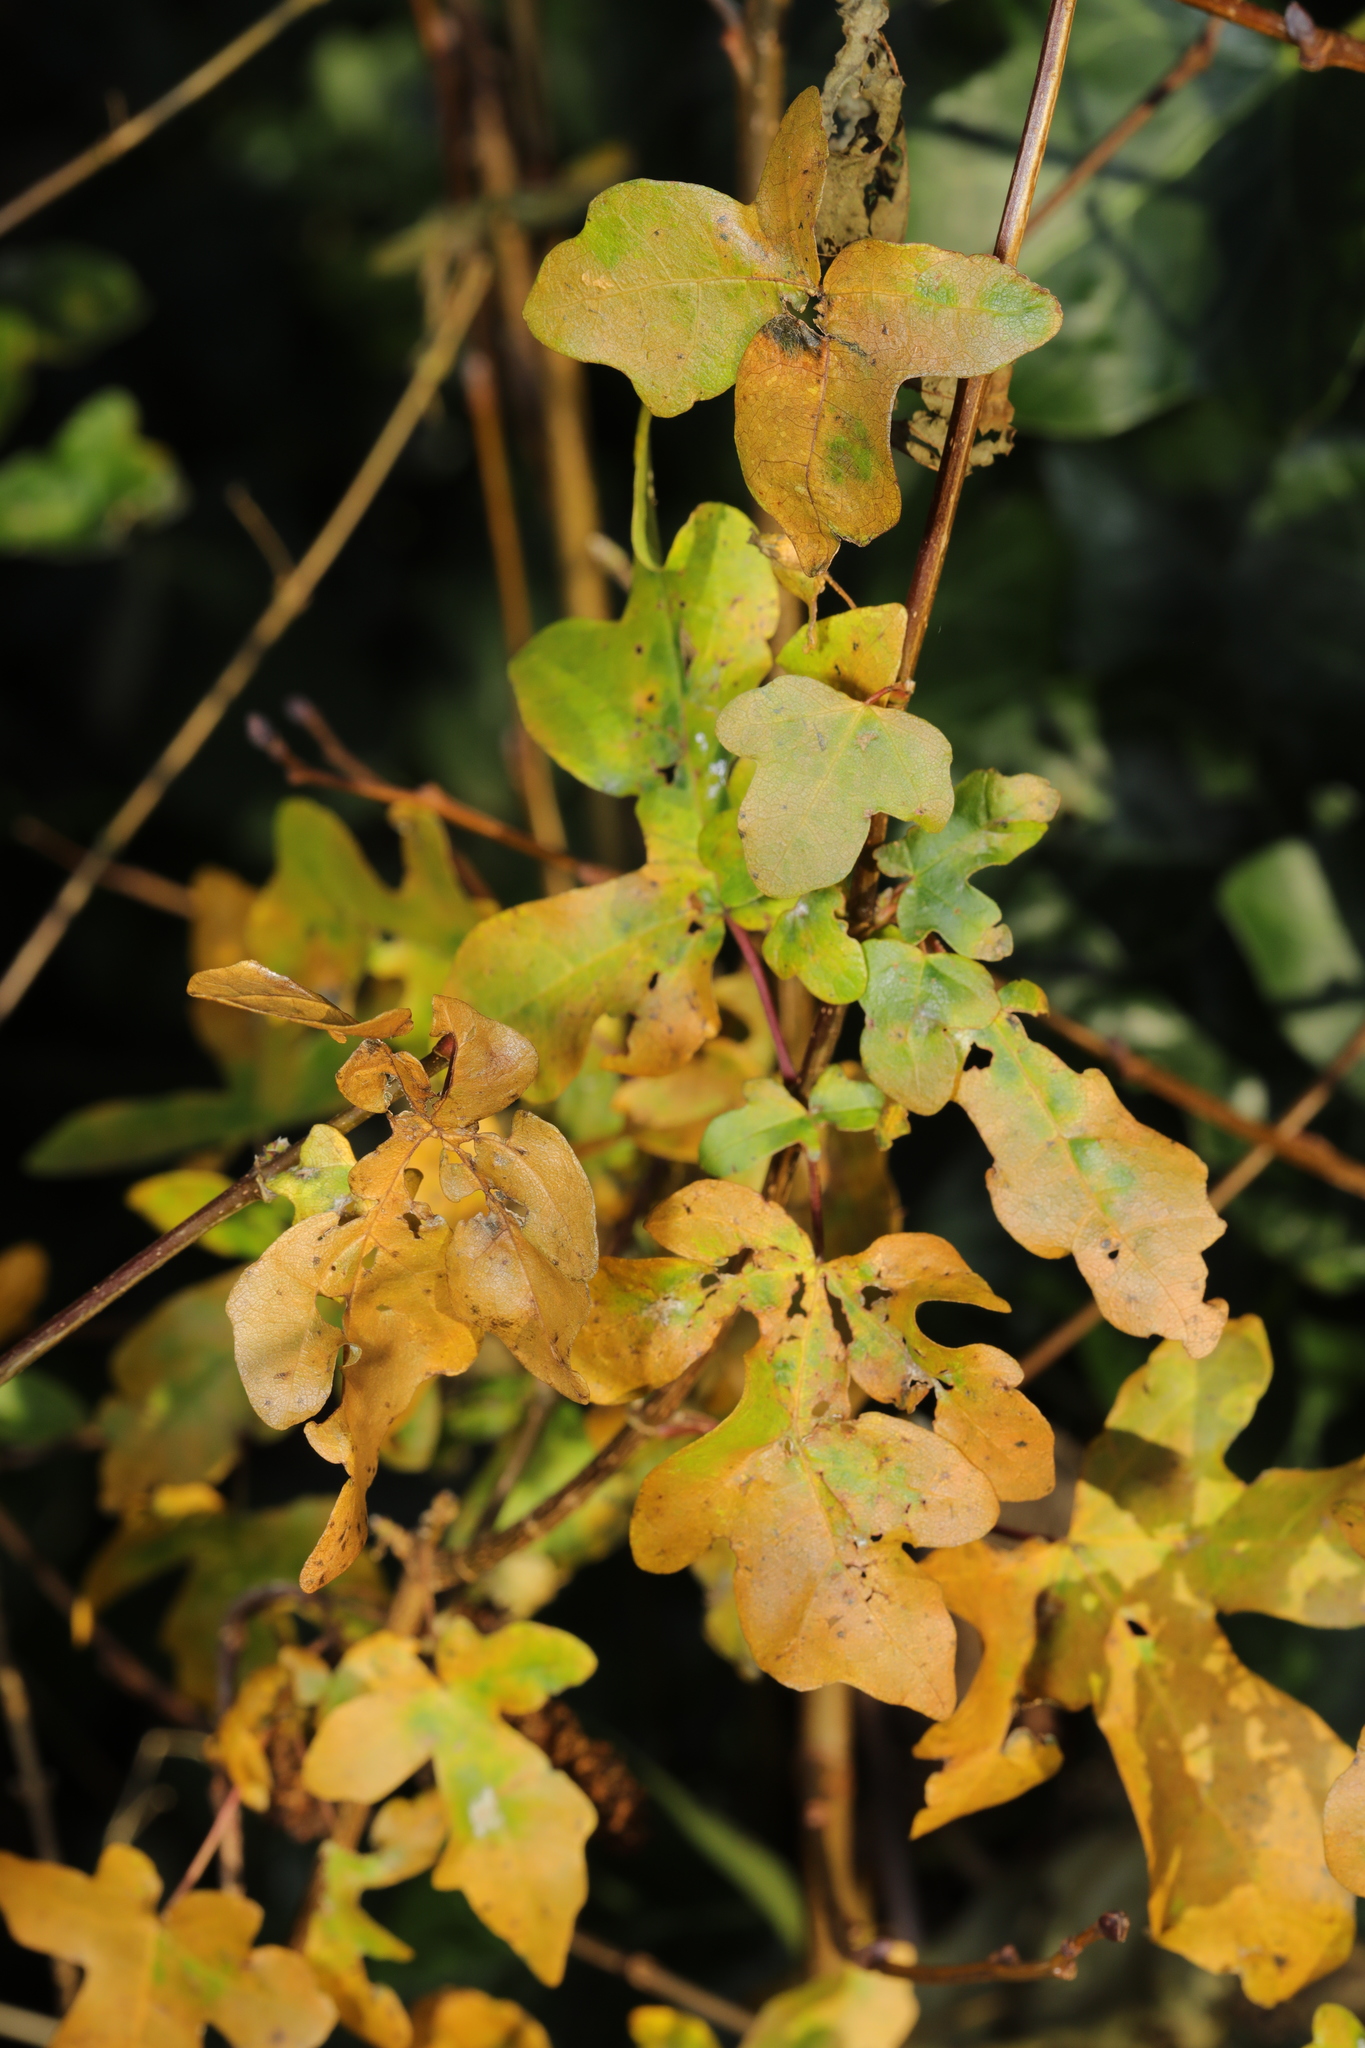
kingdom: Plantae
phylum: Tracheophyta
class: Magnoliopsida
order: Sapindales
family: Sapindaceae
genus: Acer
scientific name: Acer campestre
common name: Field maple
